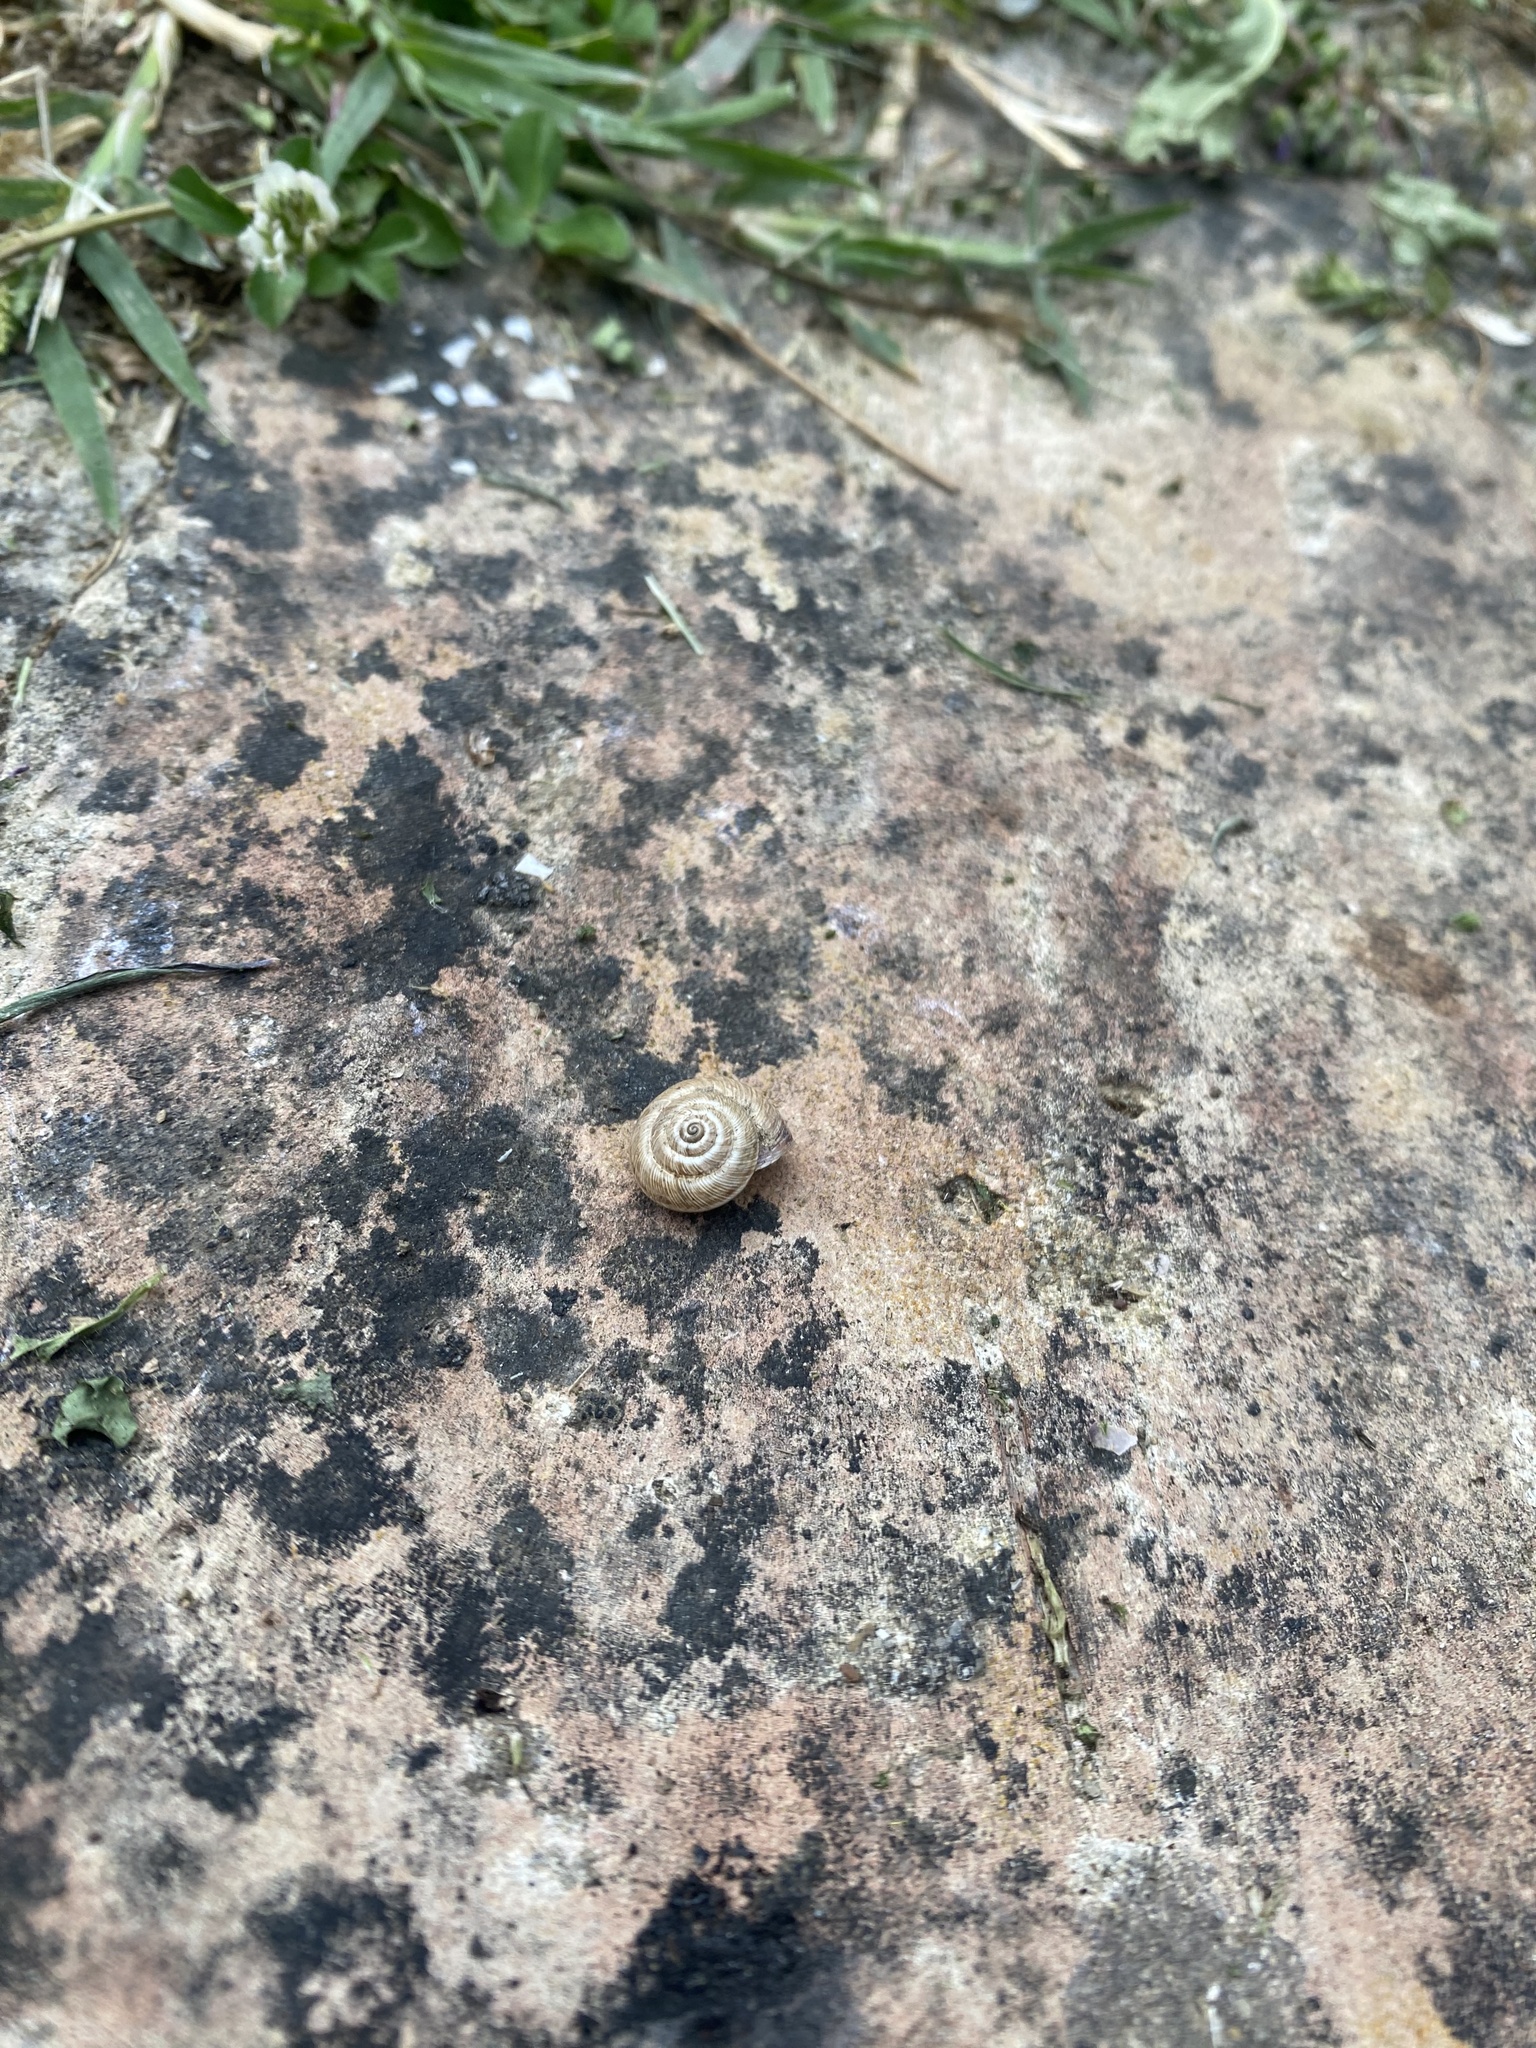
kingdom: Animalia
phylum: Mollusca
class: Gastropoda
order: Stylommatophora
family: Geomitridae
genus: Cernuella
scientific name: Cernuella cisalpina
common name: Maritime gardensnail
